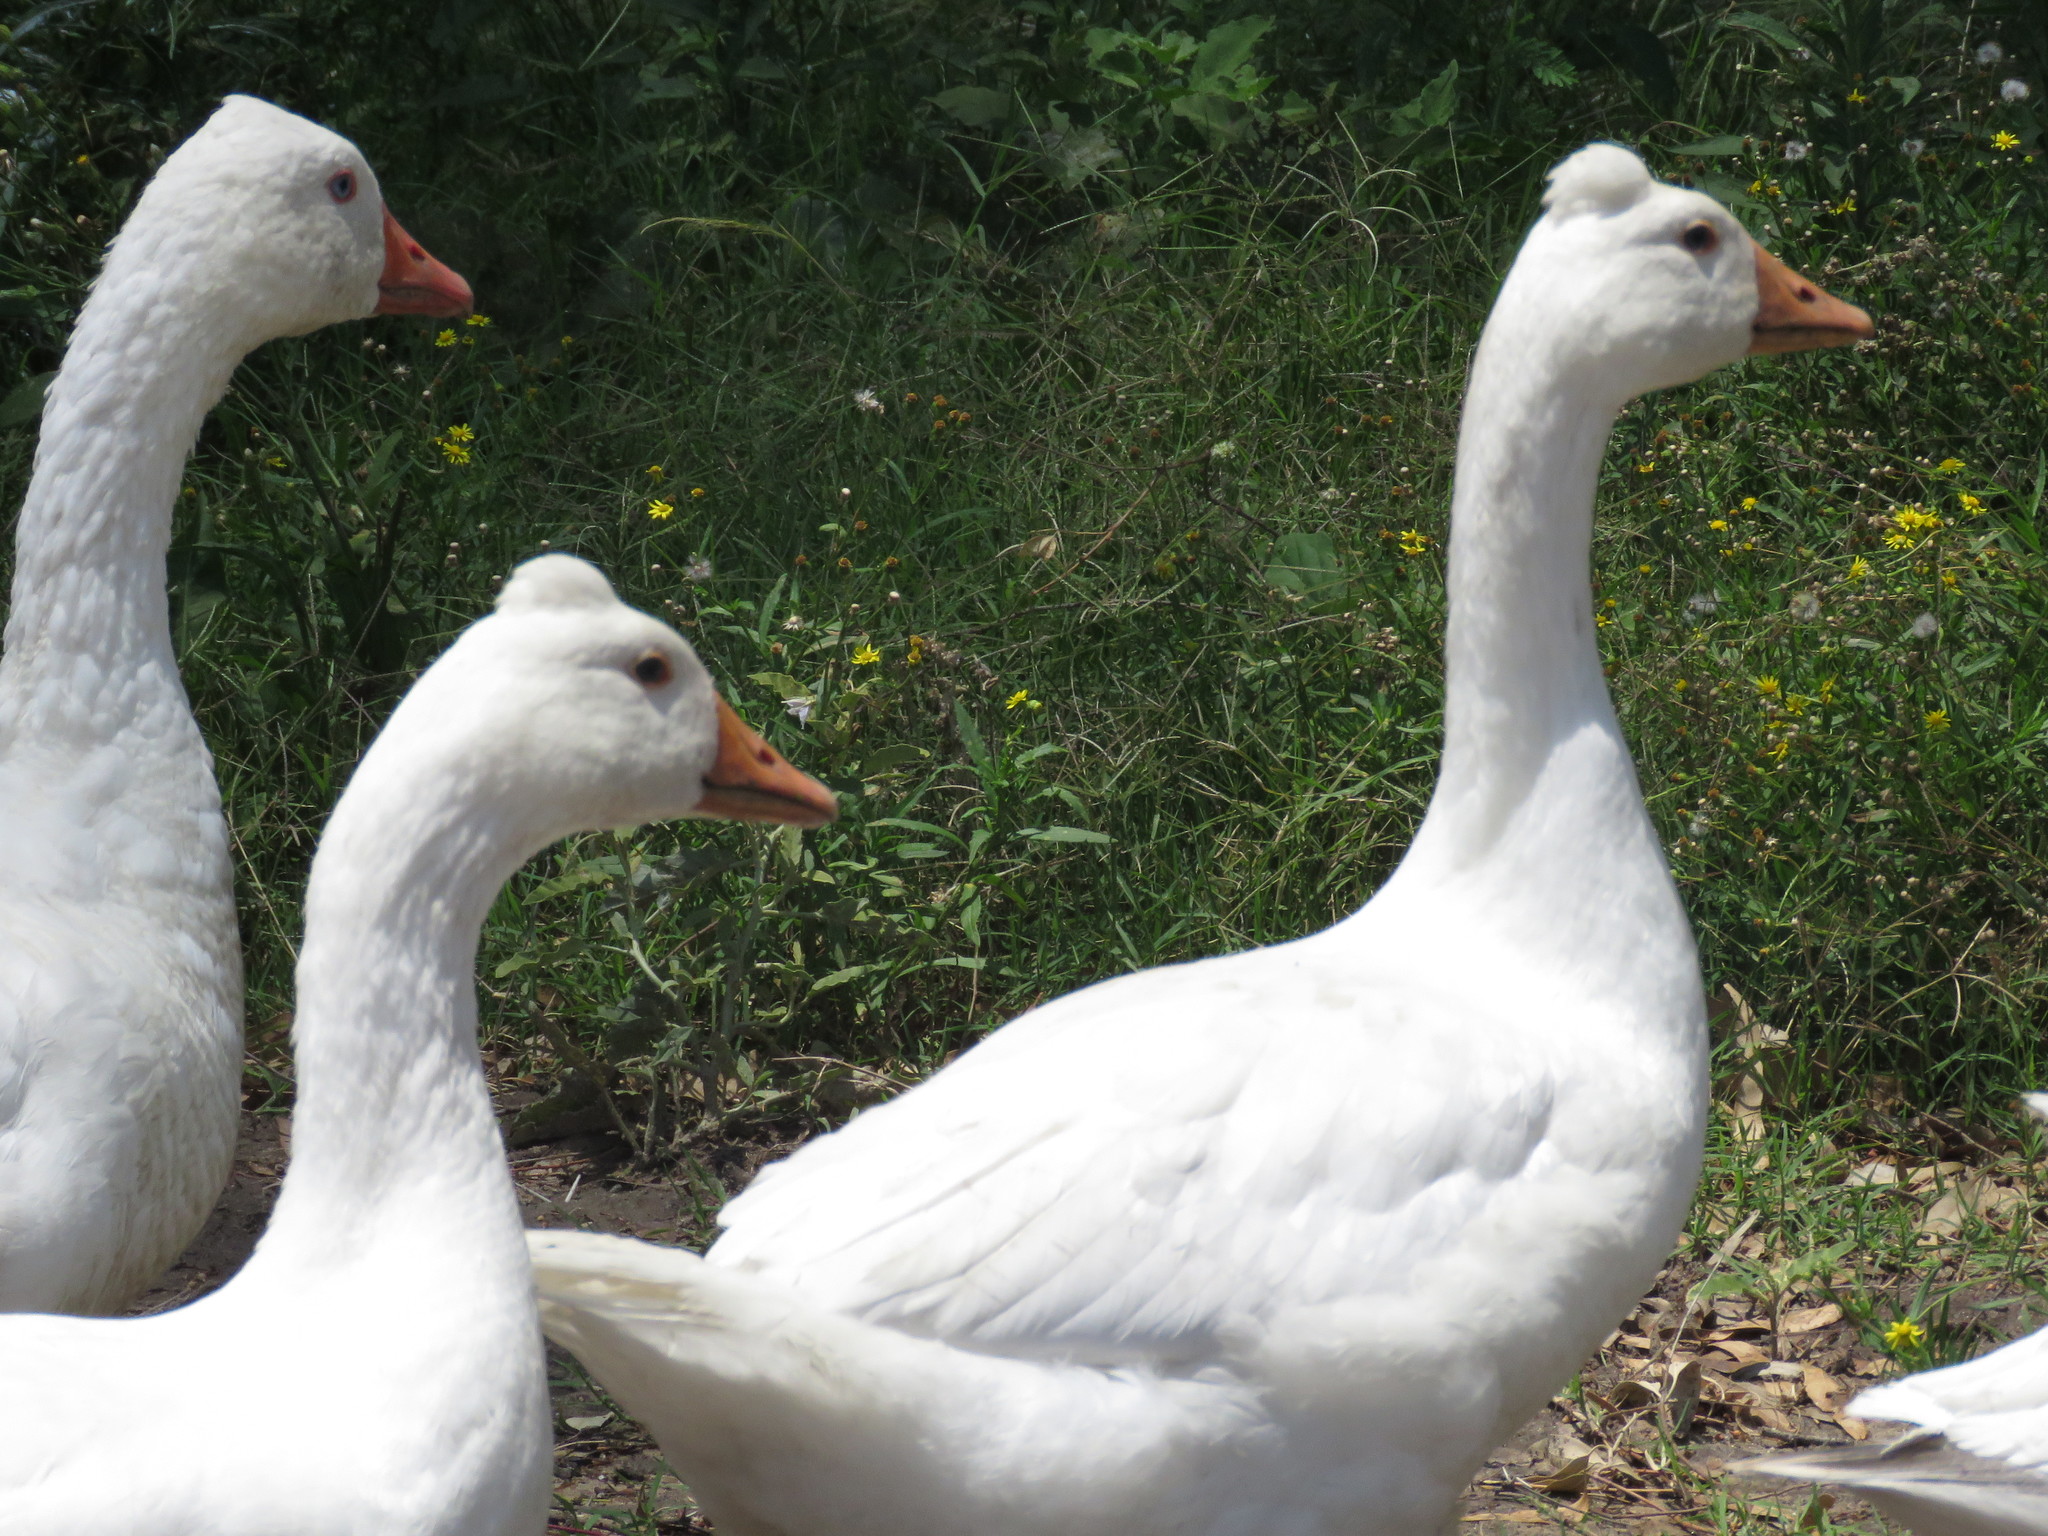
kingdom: Animalia
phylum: Chordata
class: Aves
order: Anseriformes
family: Anatidae
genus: Anser
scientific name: Anser anser
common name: Greylag goose
